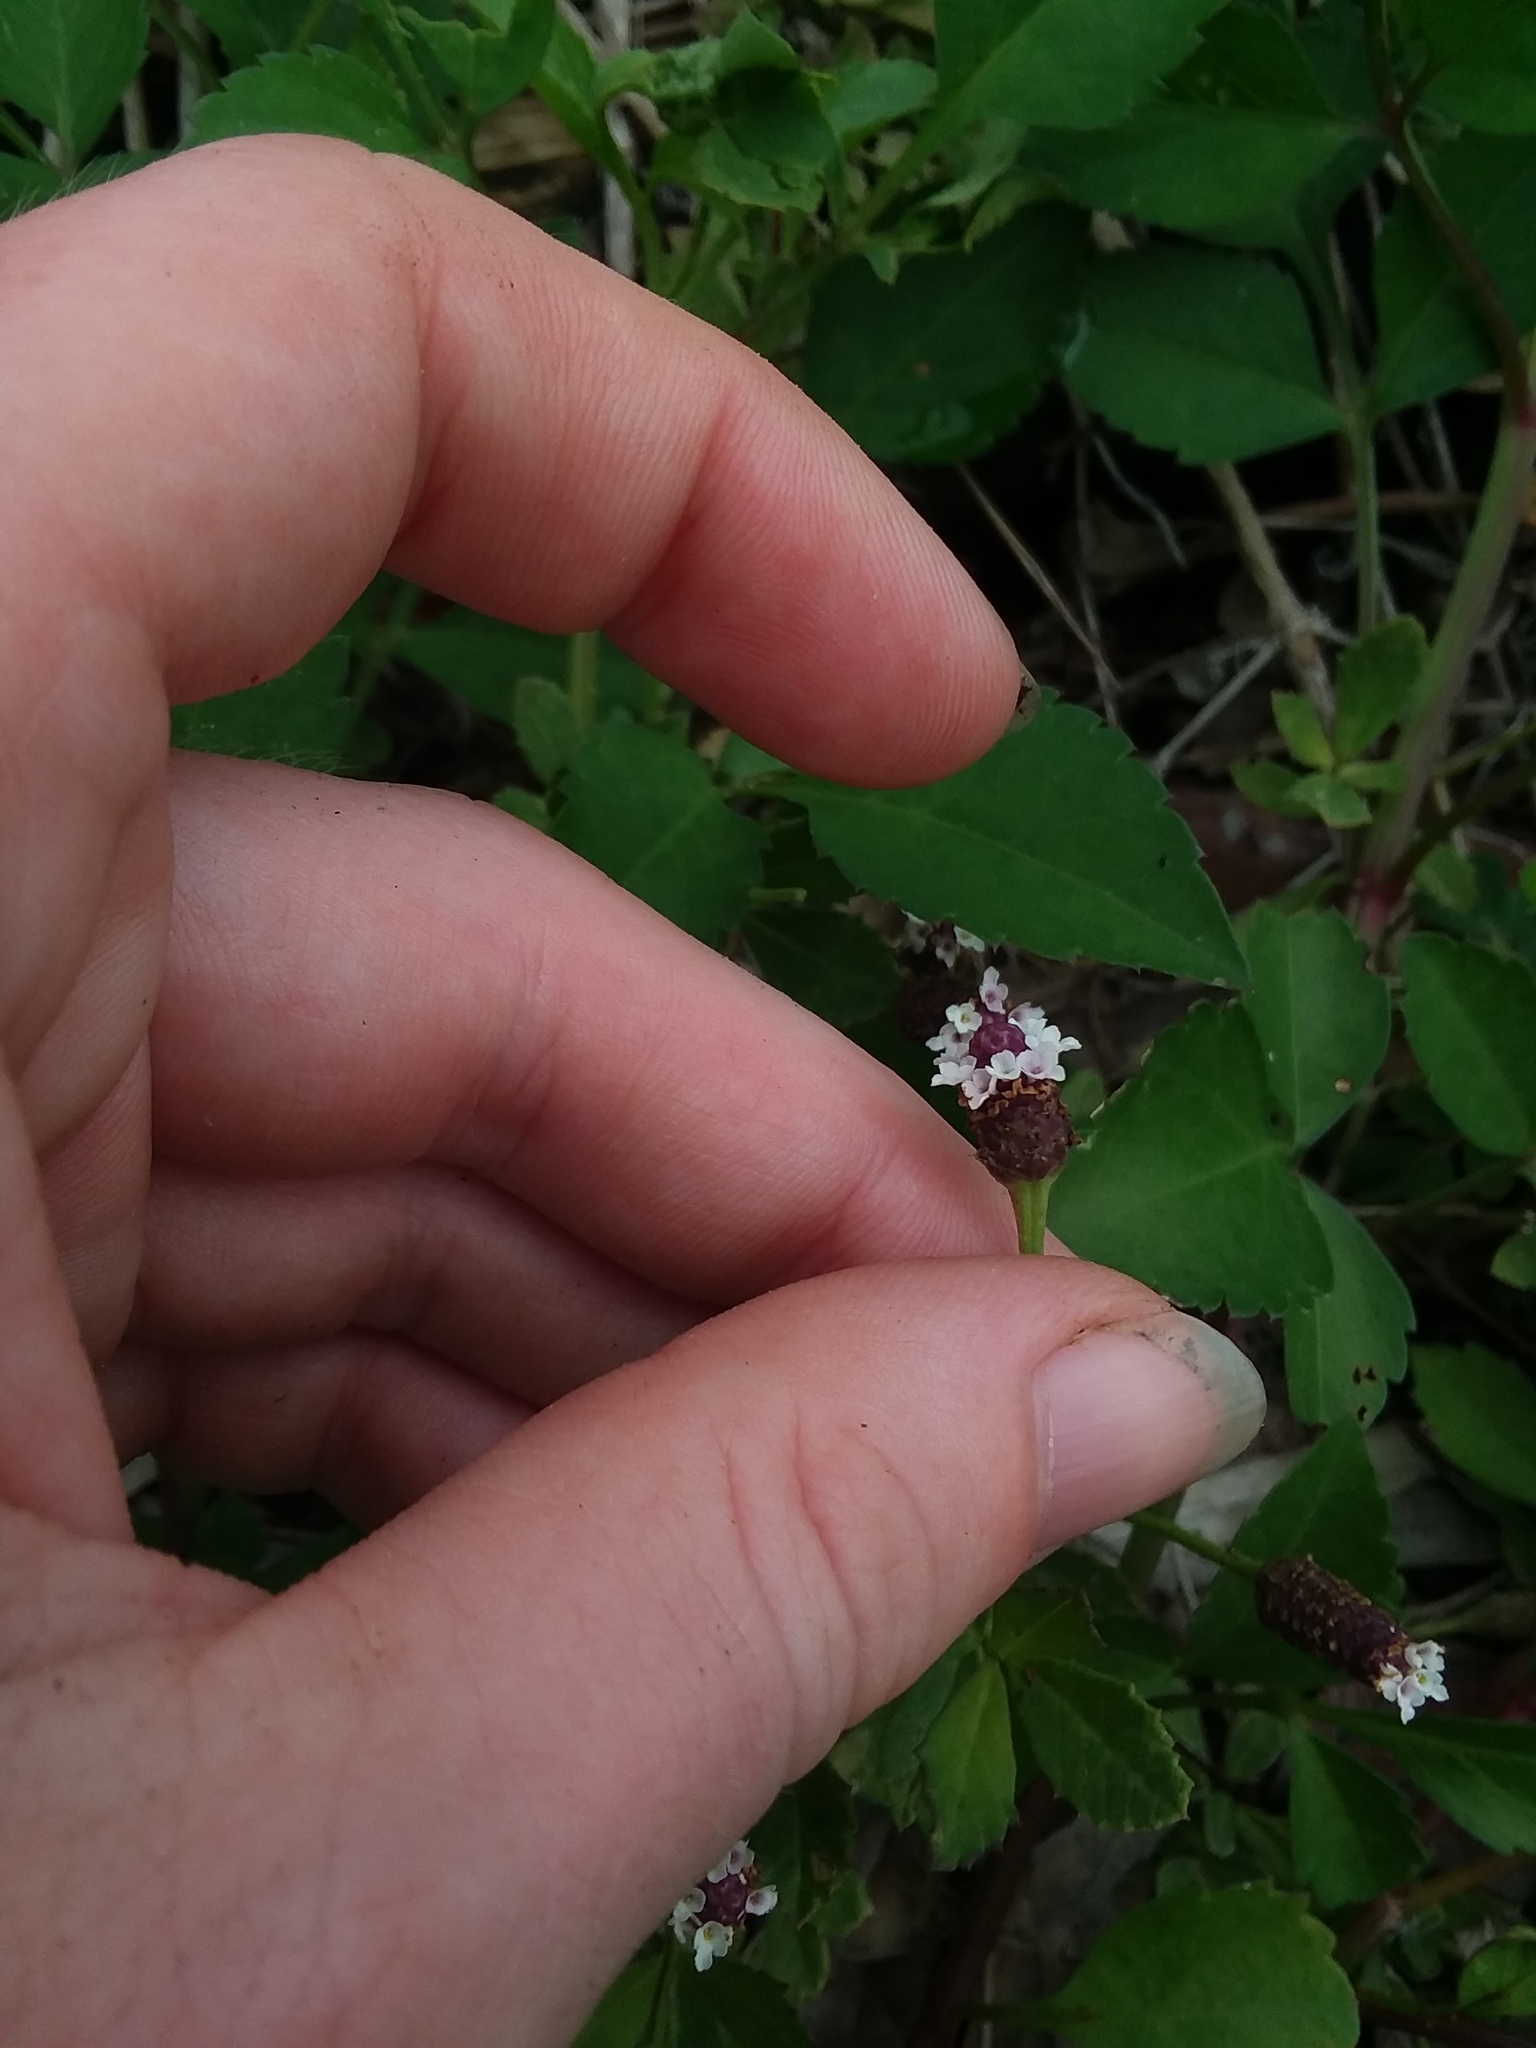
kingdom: Plantae
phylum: Tracheophyta
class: Magnoliopsida
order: Lamiales
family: Verbenaceae
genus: Phyla
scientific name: Phyla nodiflora
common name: Frogfruit
